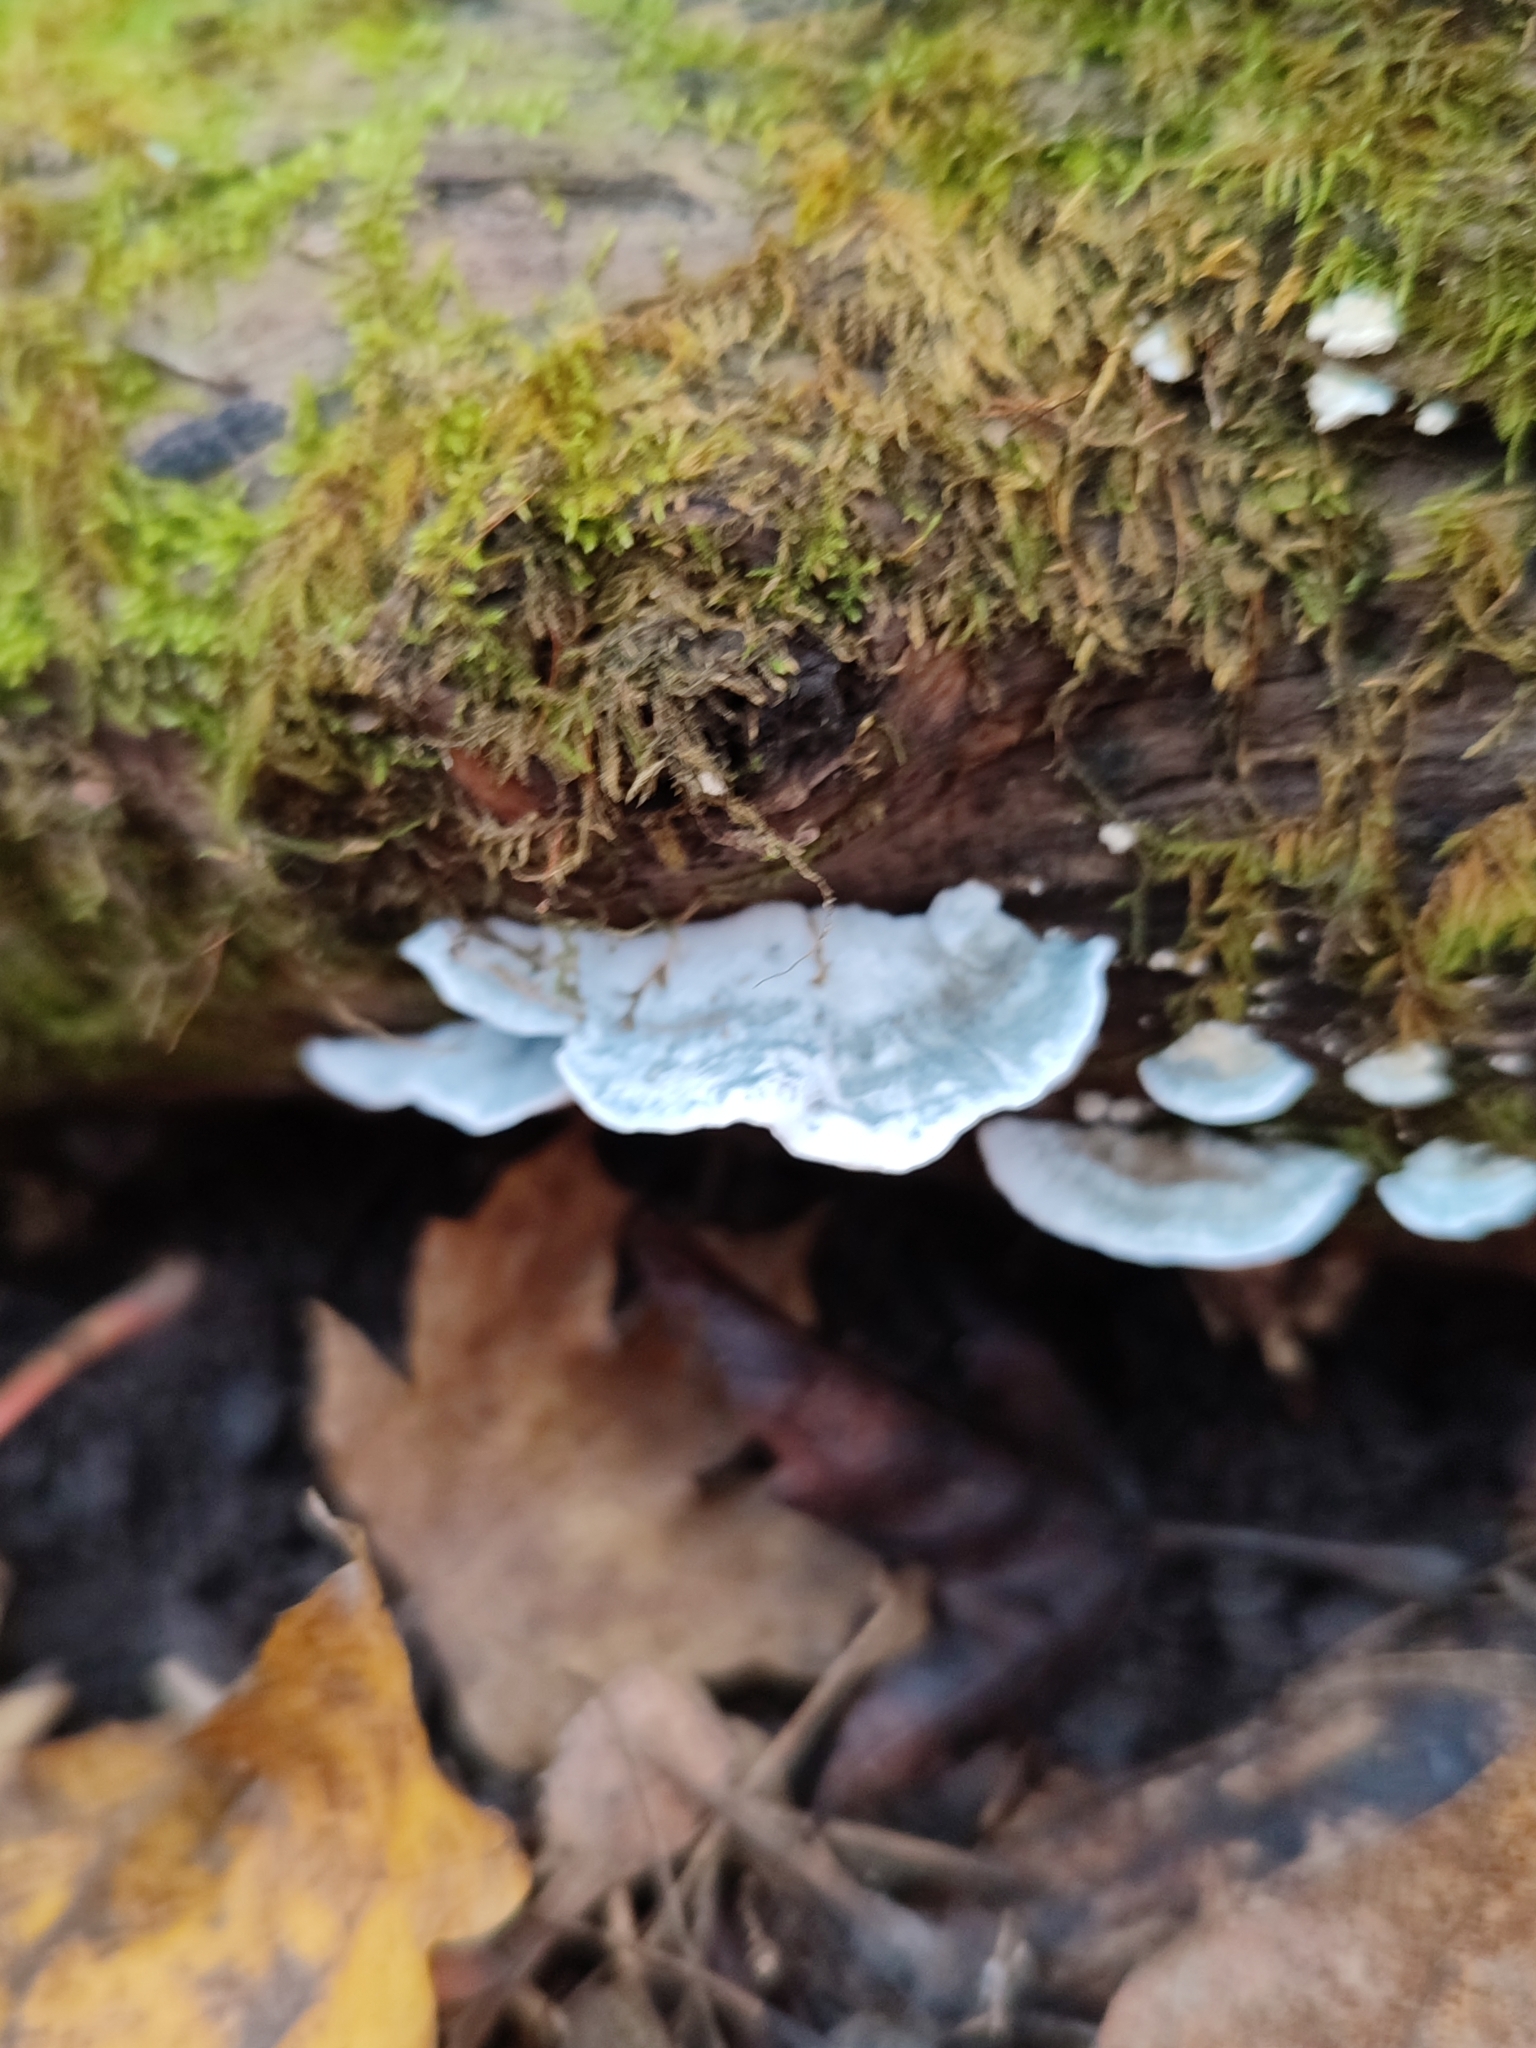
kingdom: Fungi
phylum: Basidiomycota
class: Agaricomycetes
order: Polyporales
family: Polyporaceae
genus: Cyanosporus
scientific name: Cyanosporus caesius
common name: Blue cheese polypore
